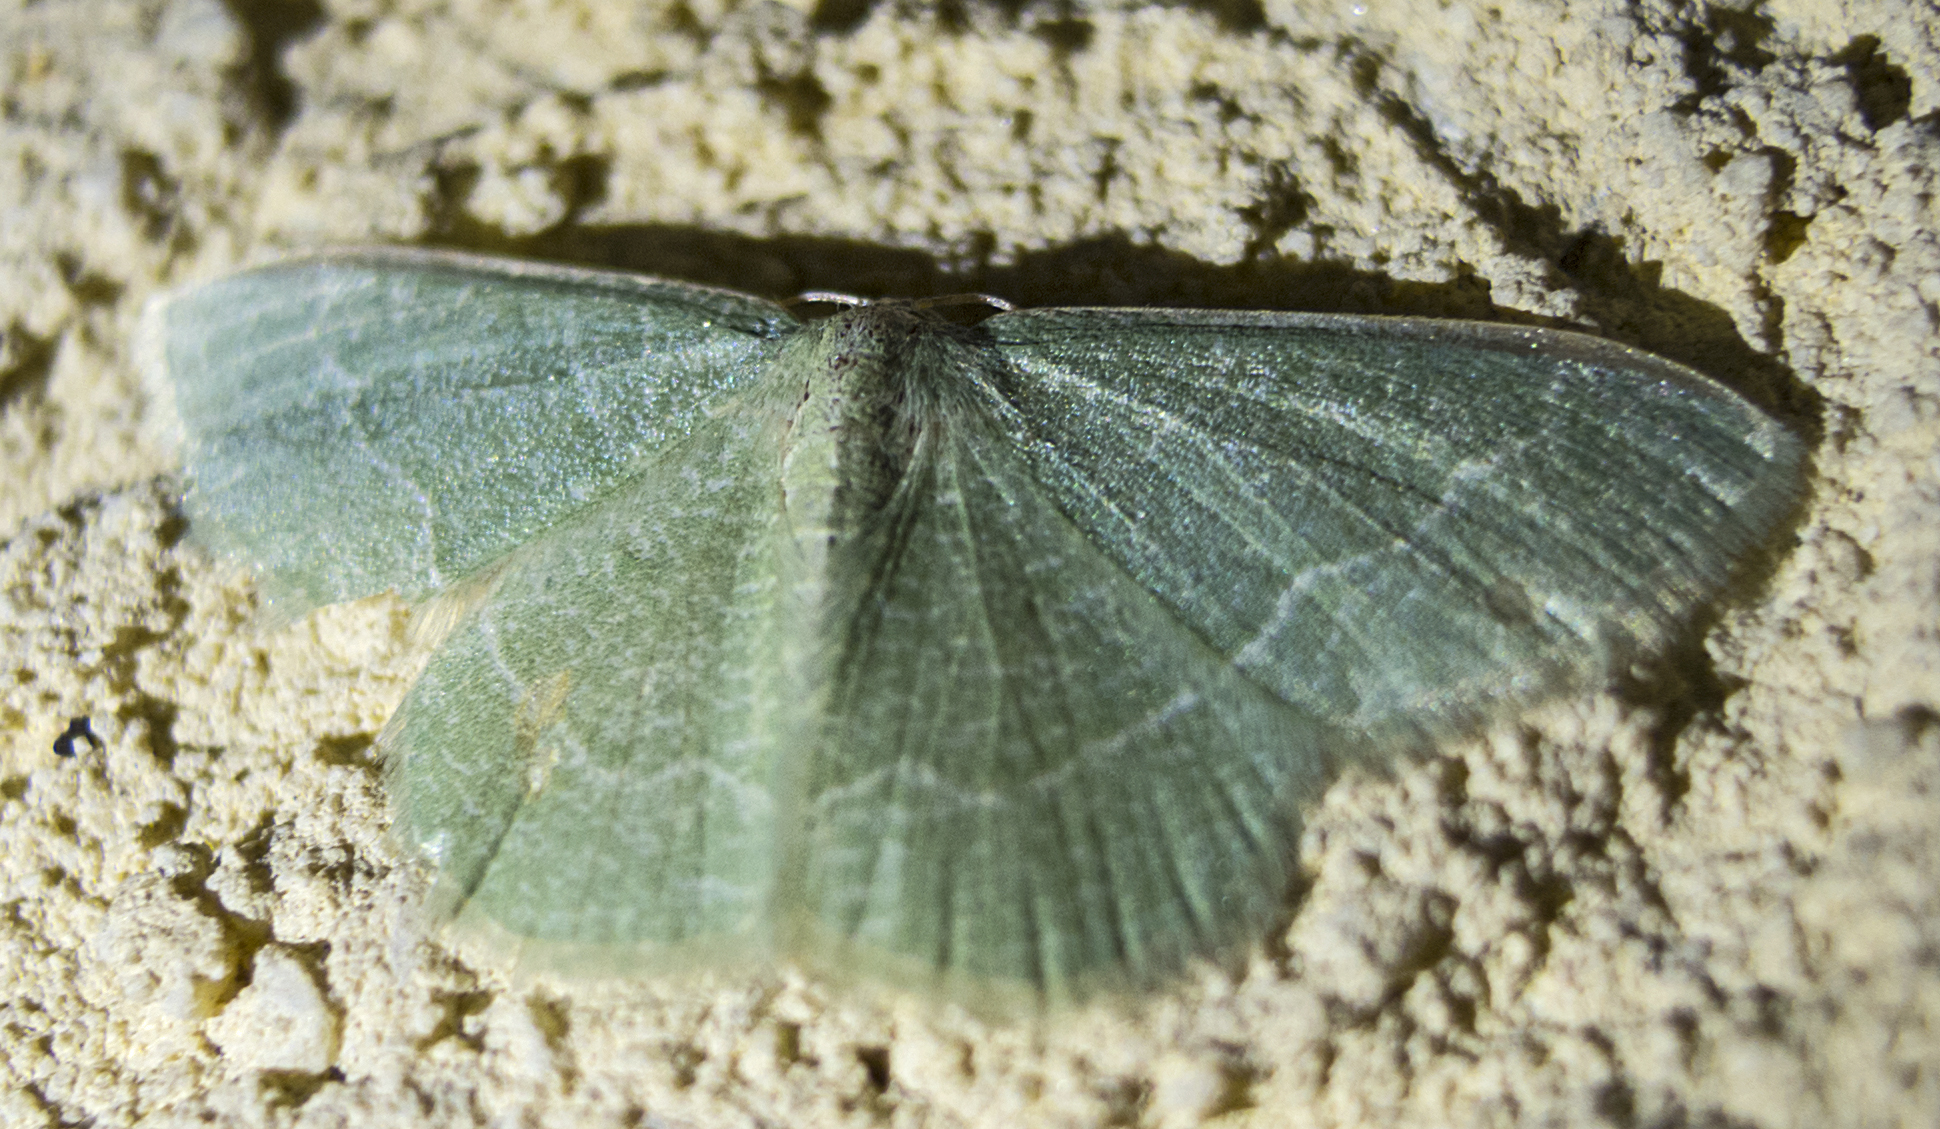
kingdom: Animalia
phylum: Arthropoda
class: Insecta
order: Lepidoptera
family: Geometridae
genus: Chlorissa
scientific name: Chlorissa etruscaria
